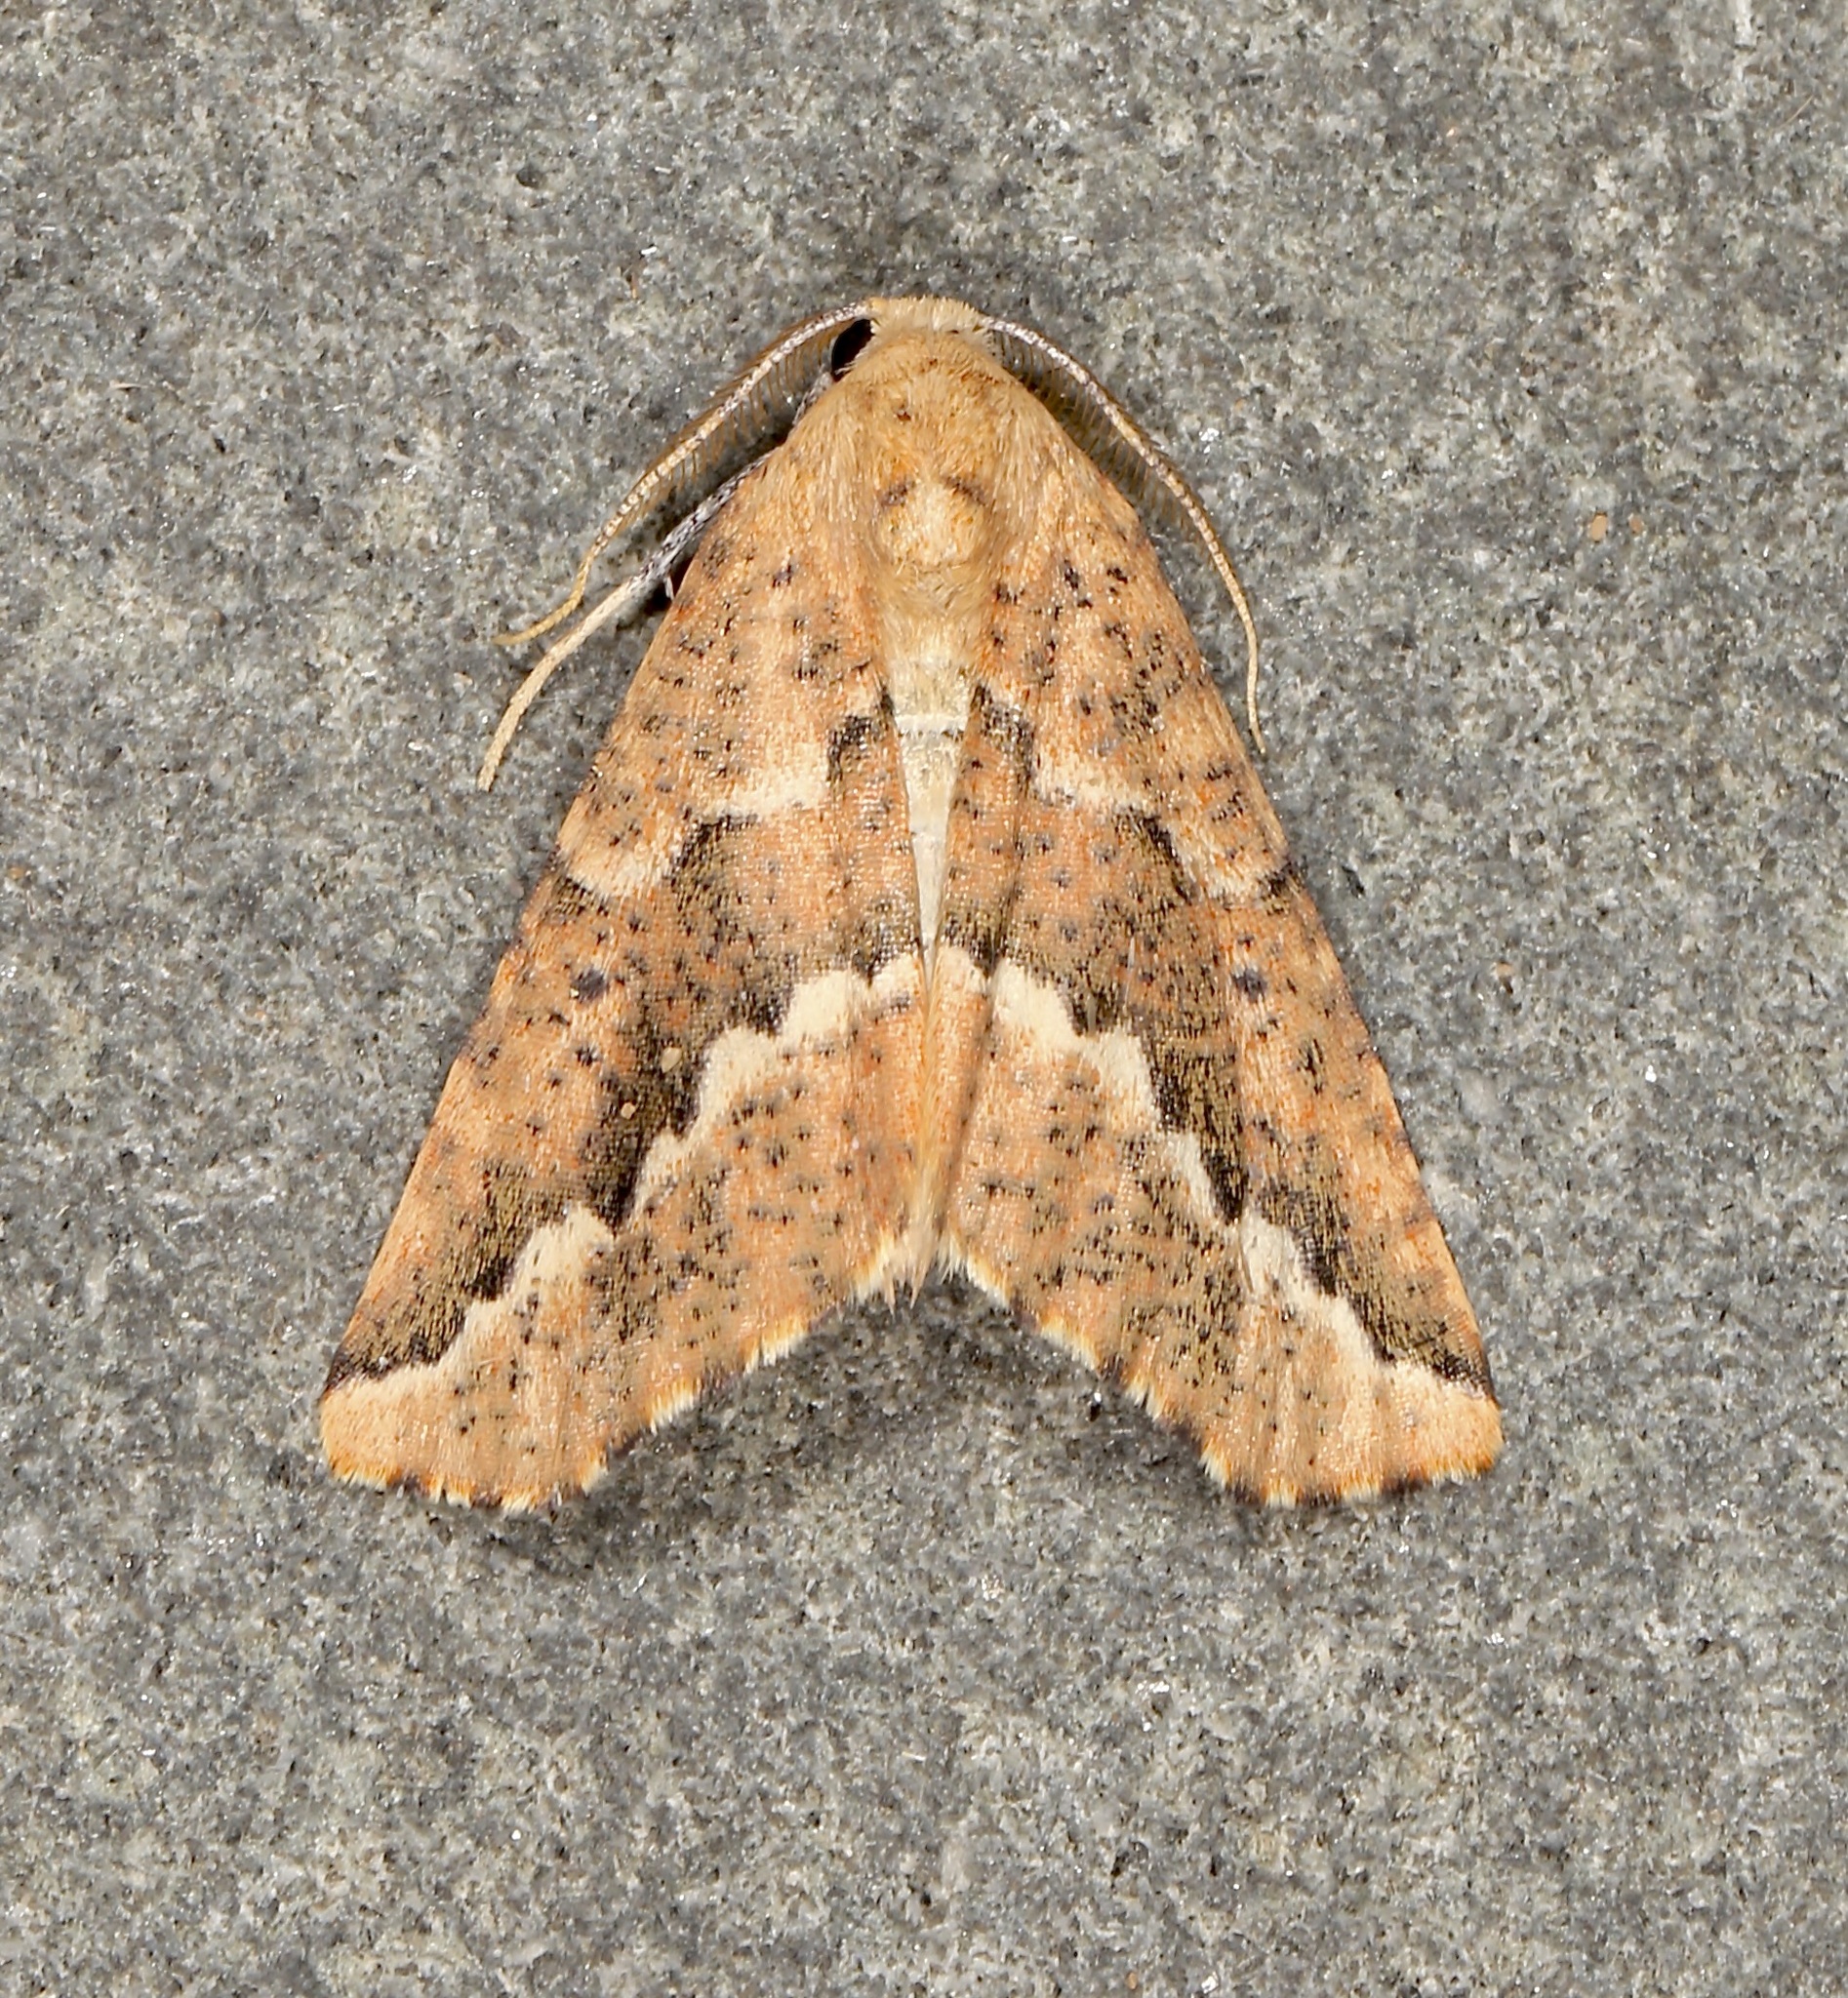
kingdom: Animalia
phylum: Arthropoda
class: Insecta
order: Lepidoptera
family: Geometridae
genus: Sicya
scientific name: Sicya morsicaria
